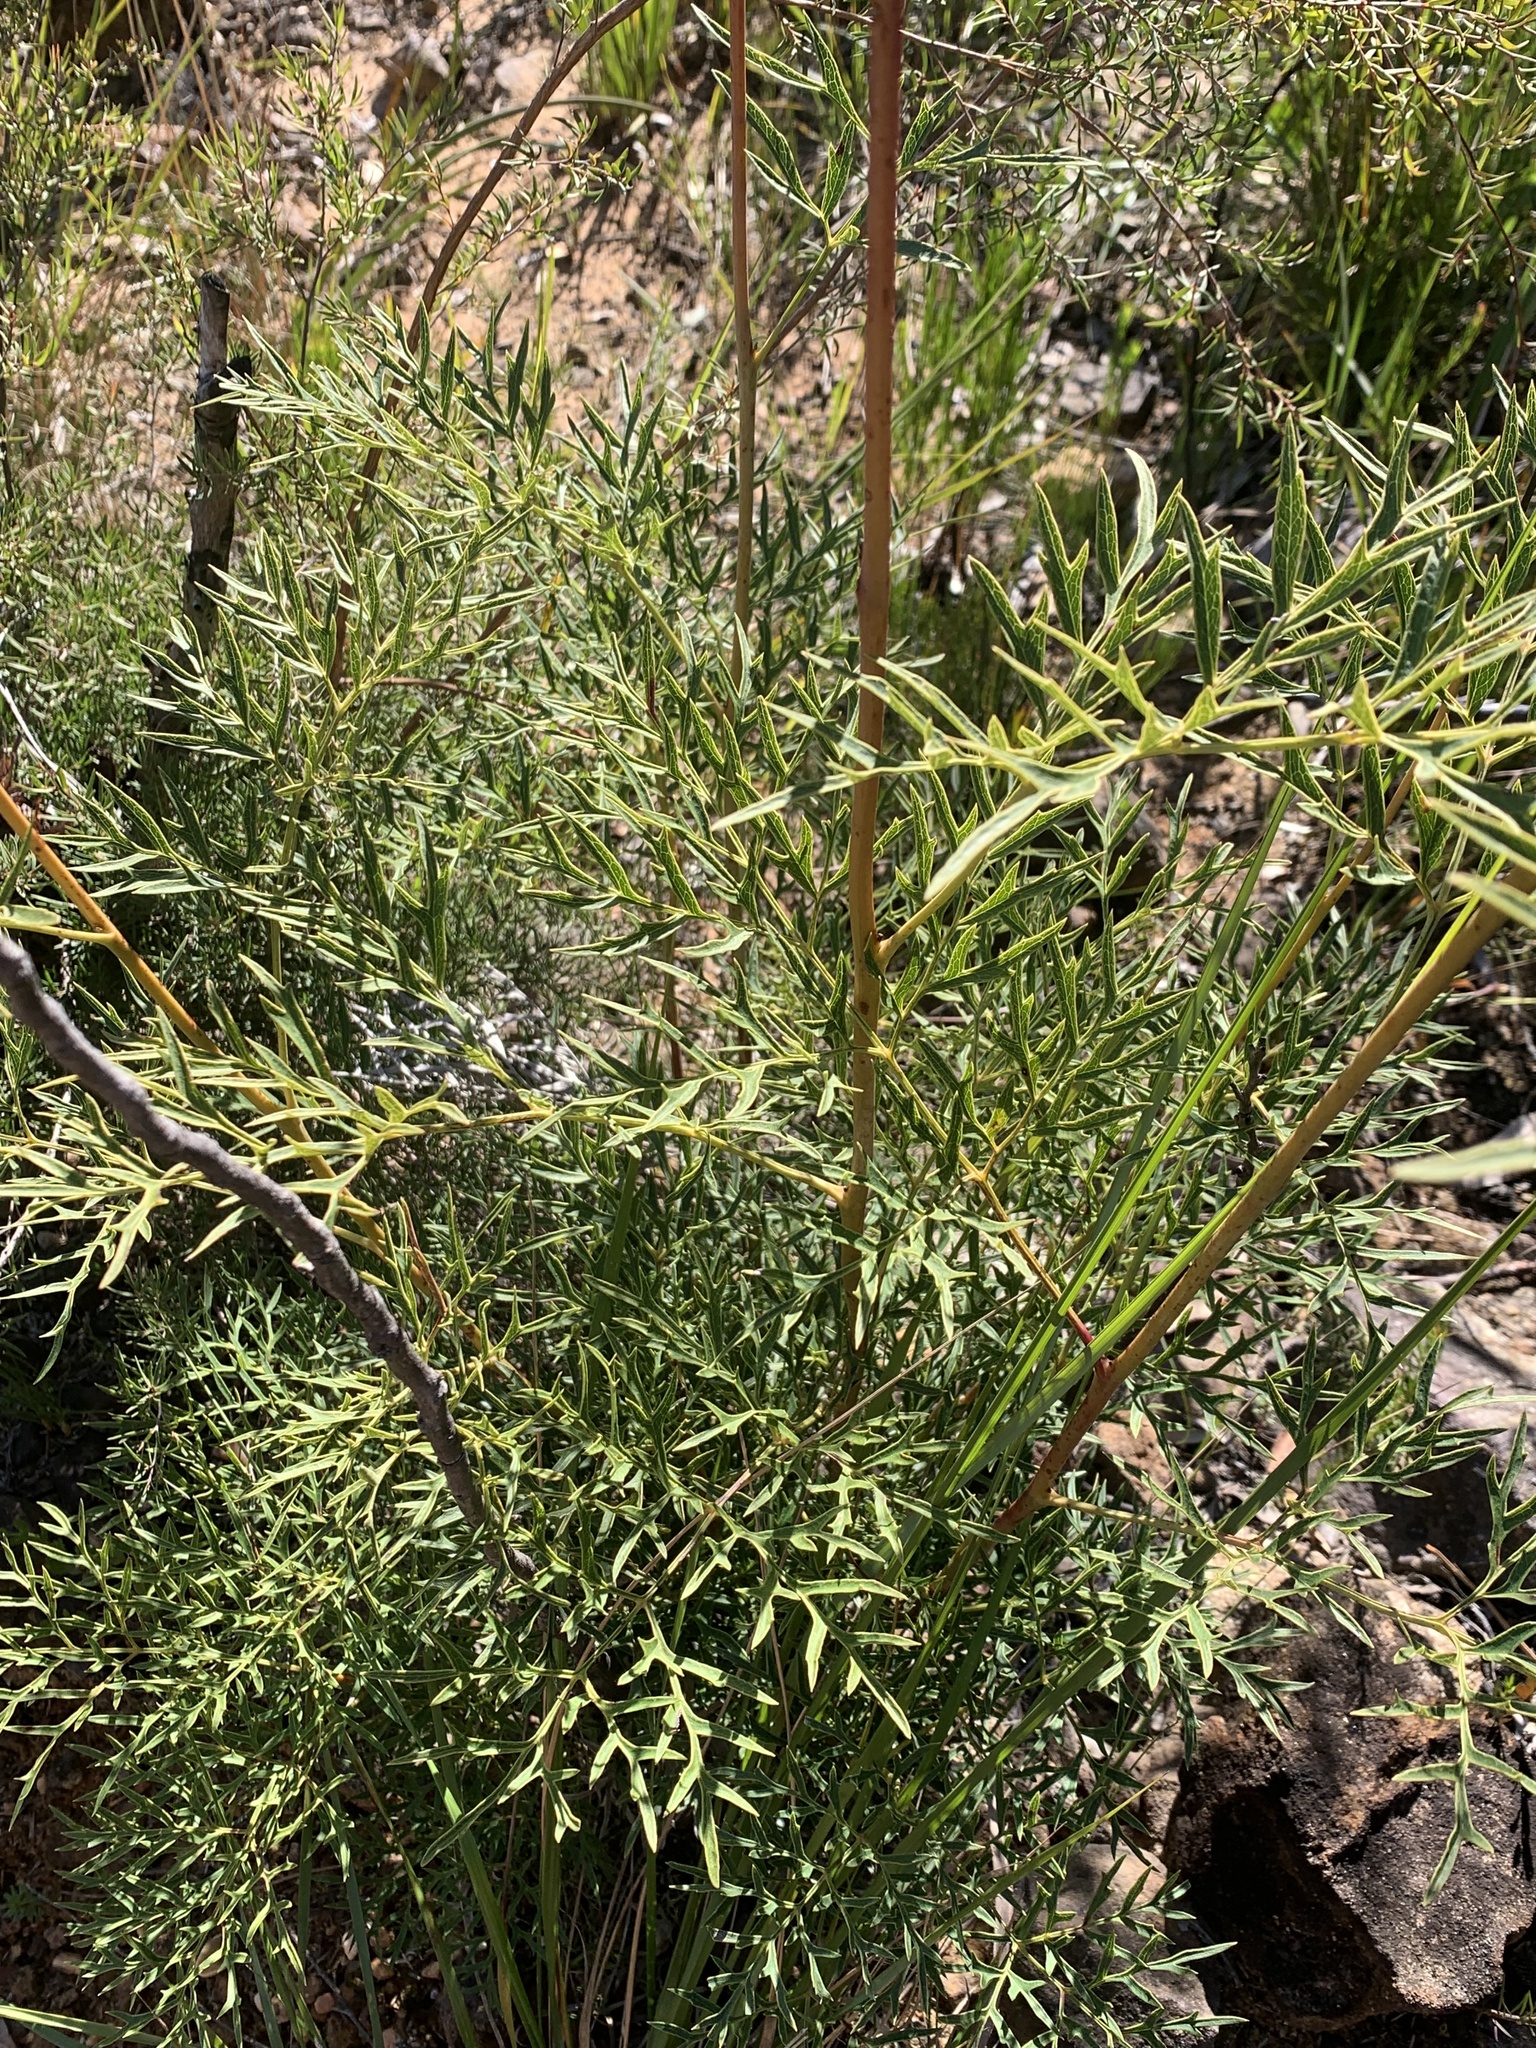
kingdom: Plantae
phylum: Tracheophyta
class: Magnoliopsida
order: Proteales
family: Proteaceae
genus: Lomatia
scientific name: Lomatia silaifolia
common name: Crinklebush
